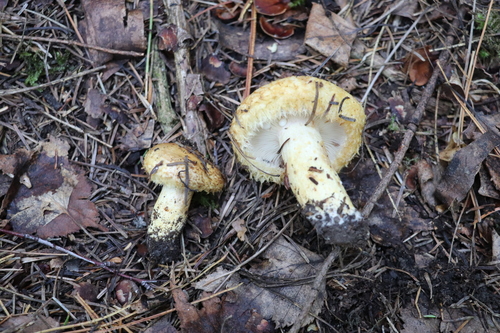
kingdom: Fungi
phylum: Basidiomycota
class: Agaricomycetes
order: Russulales
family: Russulaceae
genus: Lactarius
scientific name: Lactarius repraesentaneus
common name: Yellow bearded milkcap
